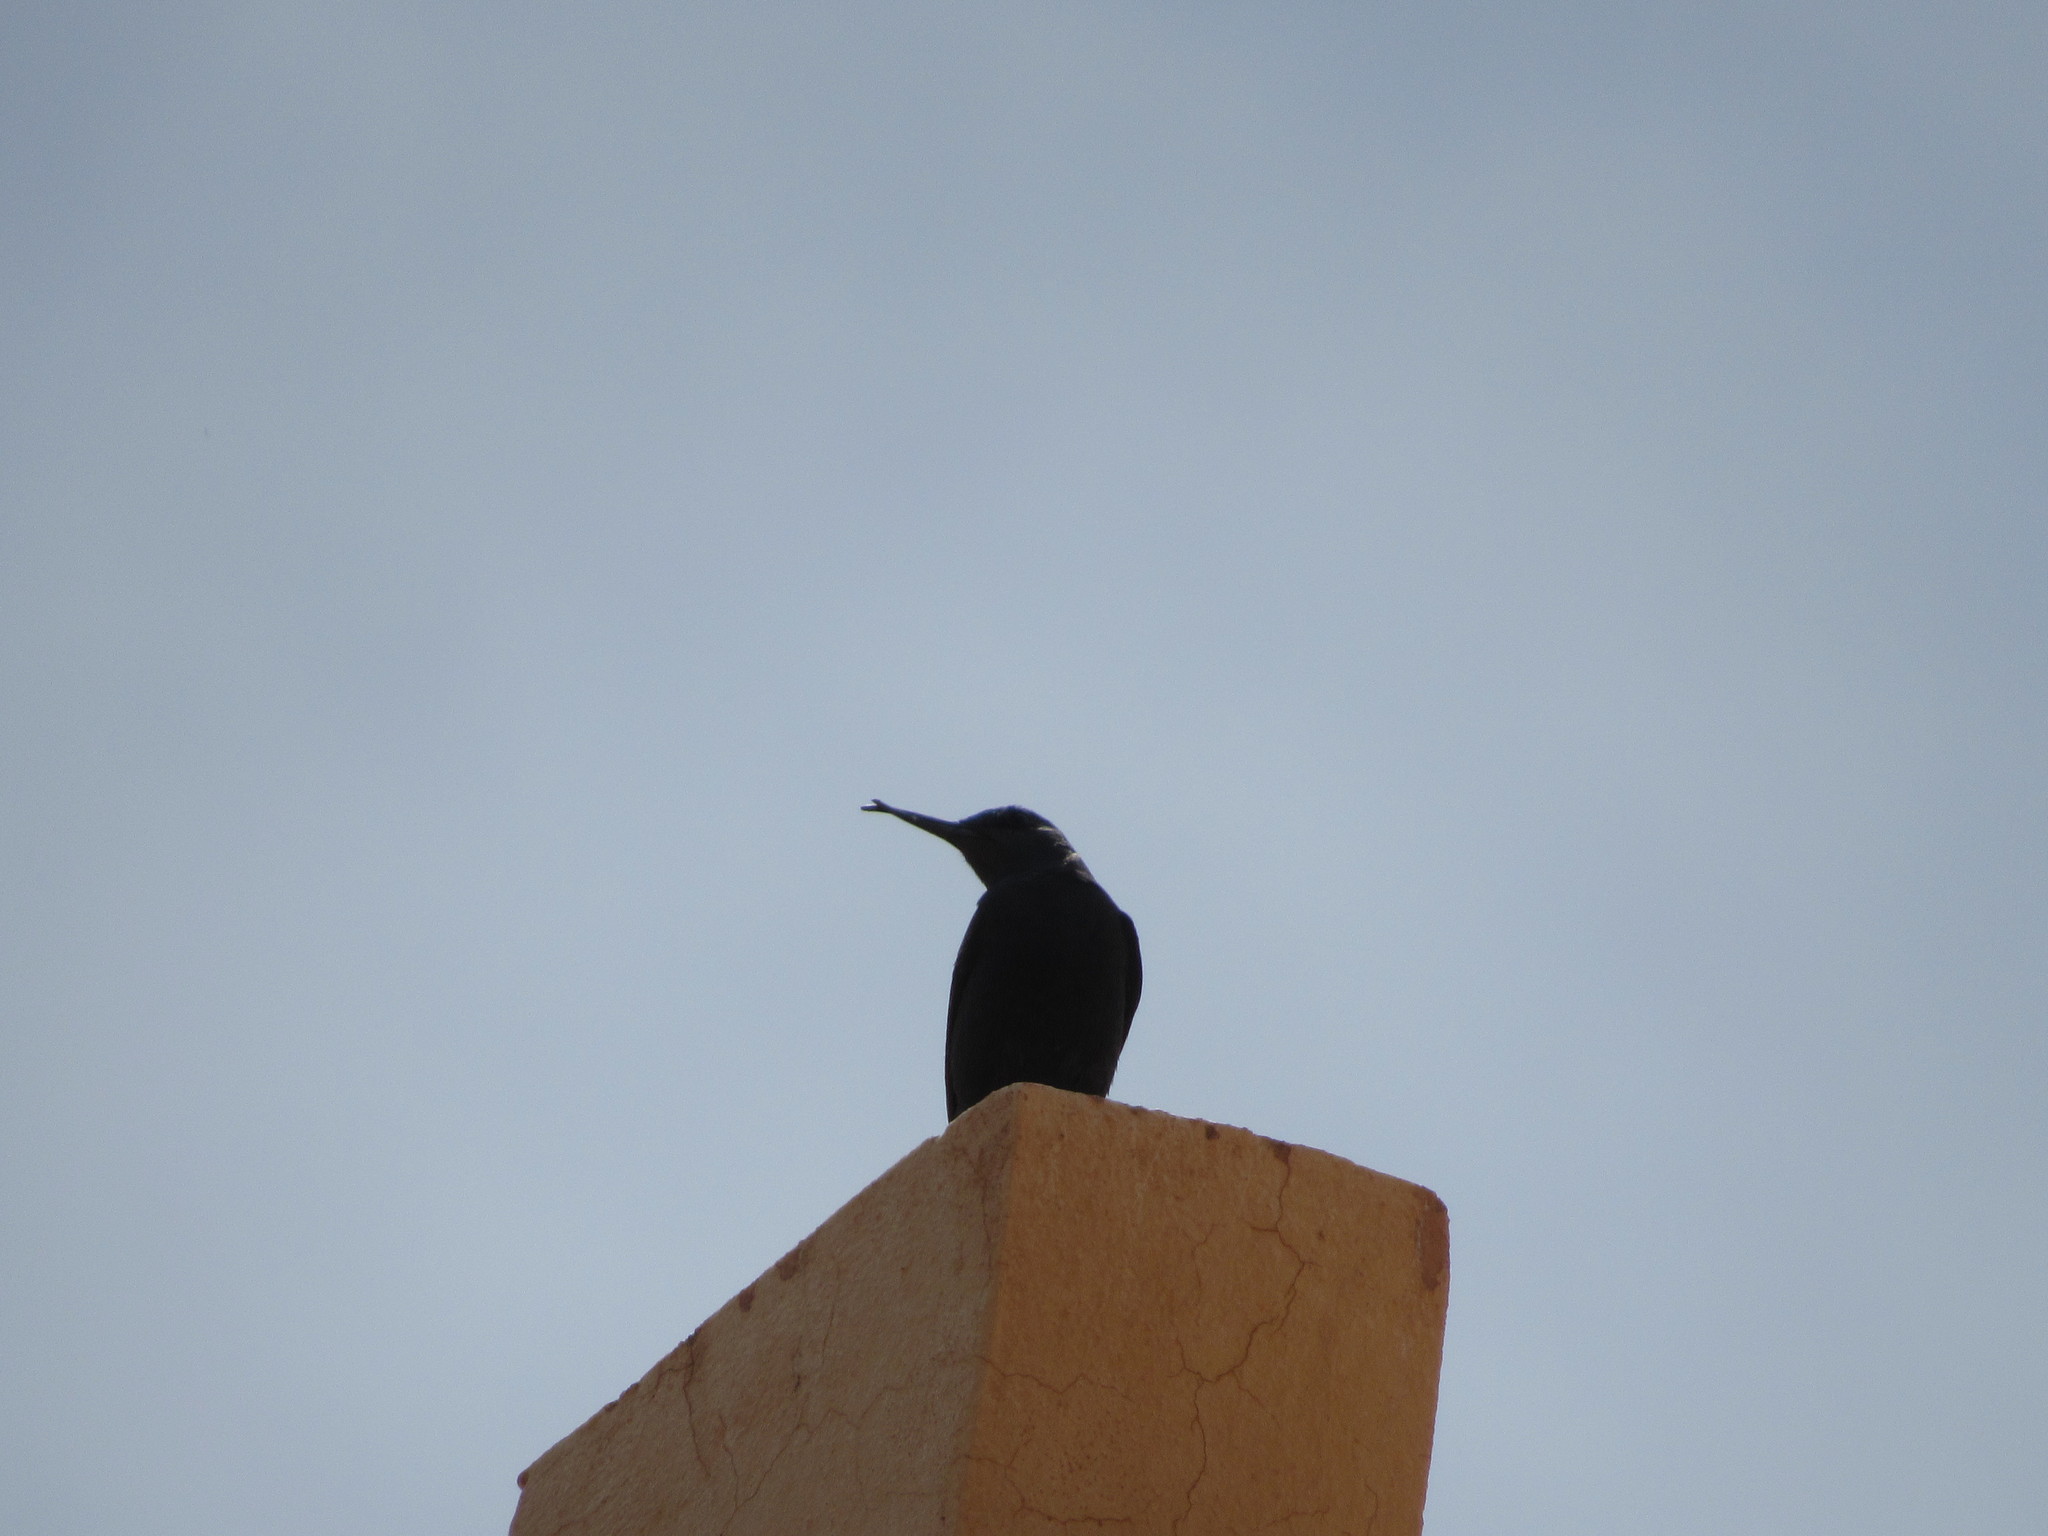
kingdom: Animalia
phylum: Chordata
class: Aves
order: Passeriformes
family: Muscicapidae
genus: Monticola
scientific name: Monticola solitarius
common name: Blue rock thrush
